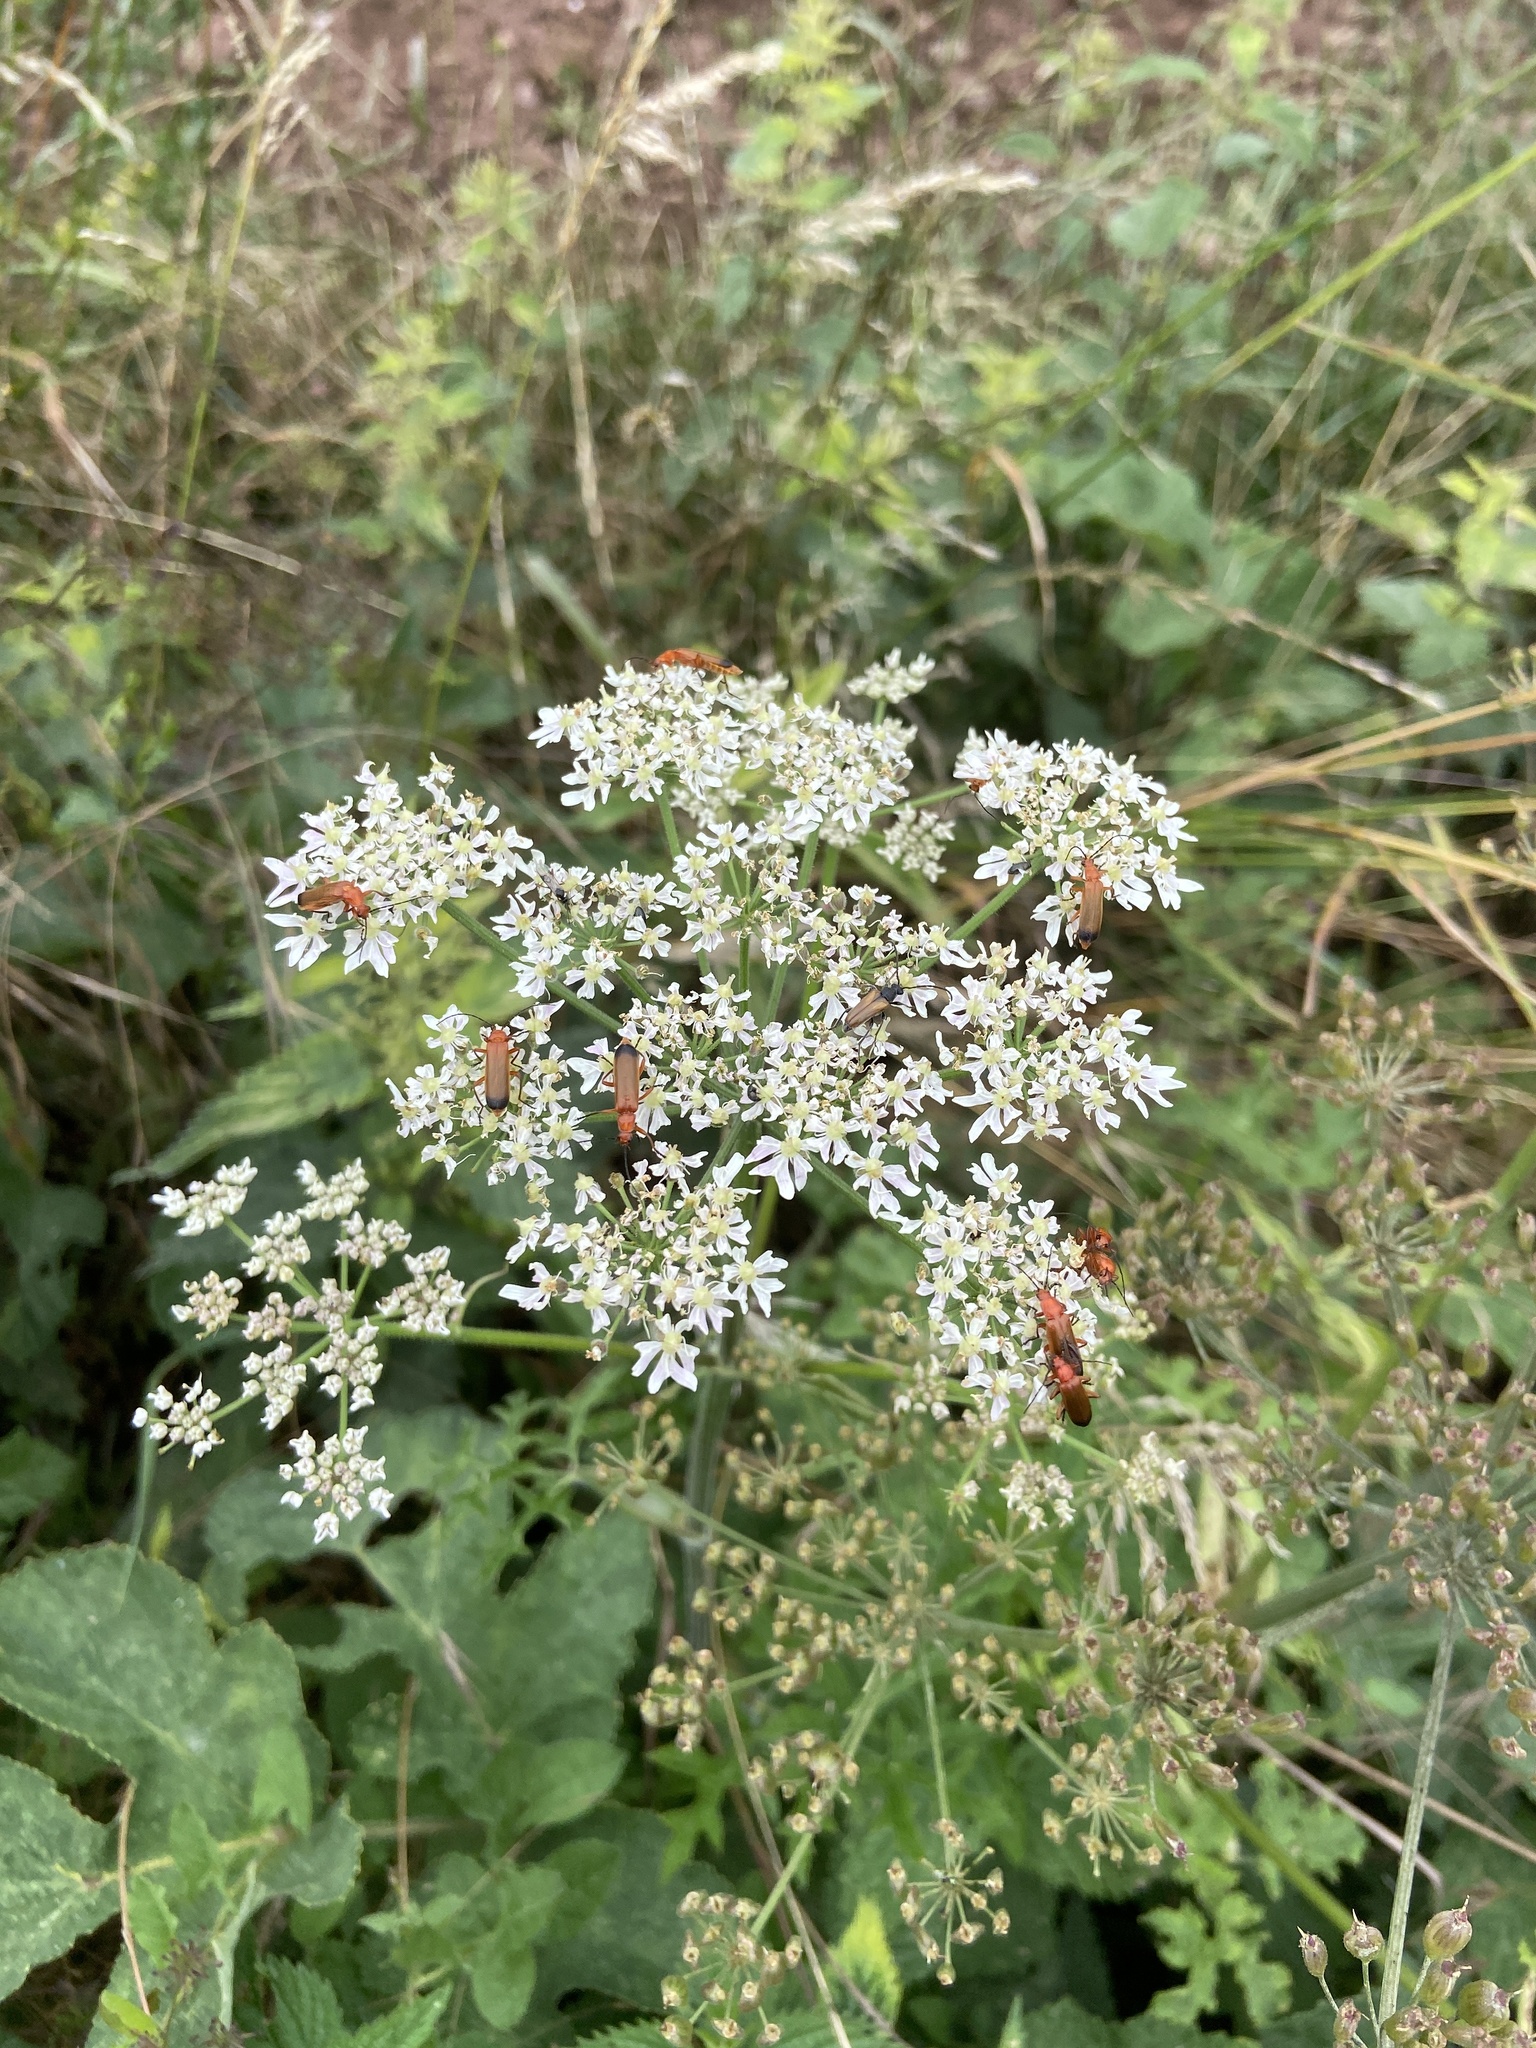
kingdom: Animalia
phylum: Arthropoda
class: Insecta
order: Coleoptera
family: Cantharidae
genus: Rhagonycha
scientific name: Rhagonycha fulva
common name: Common red soldier beetle
